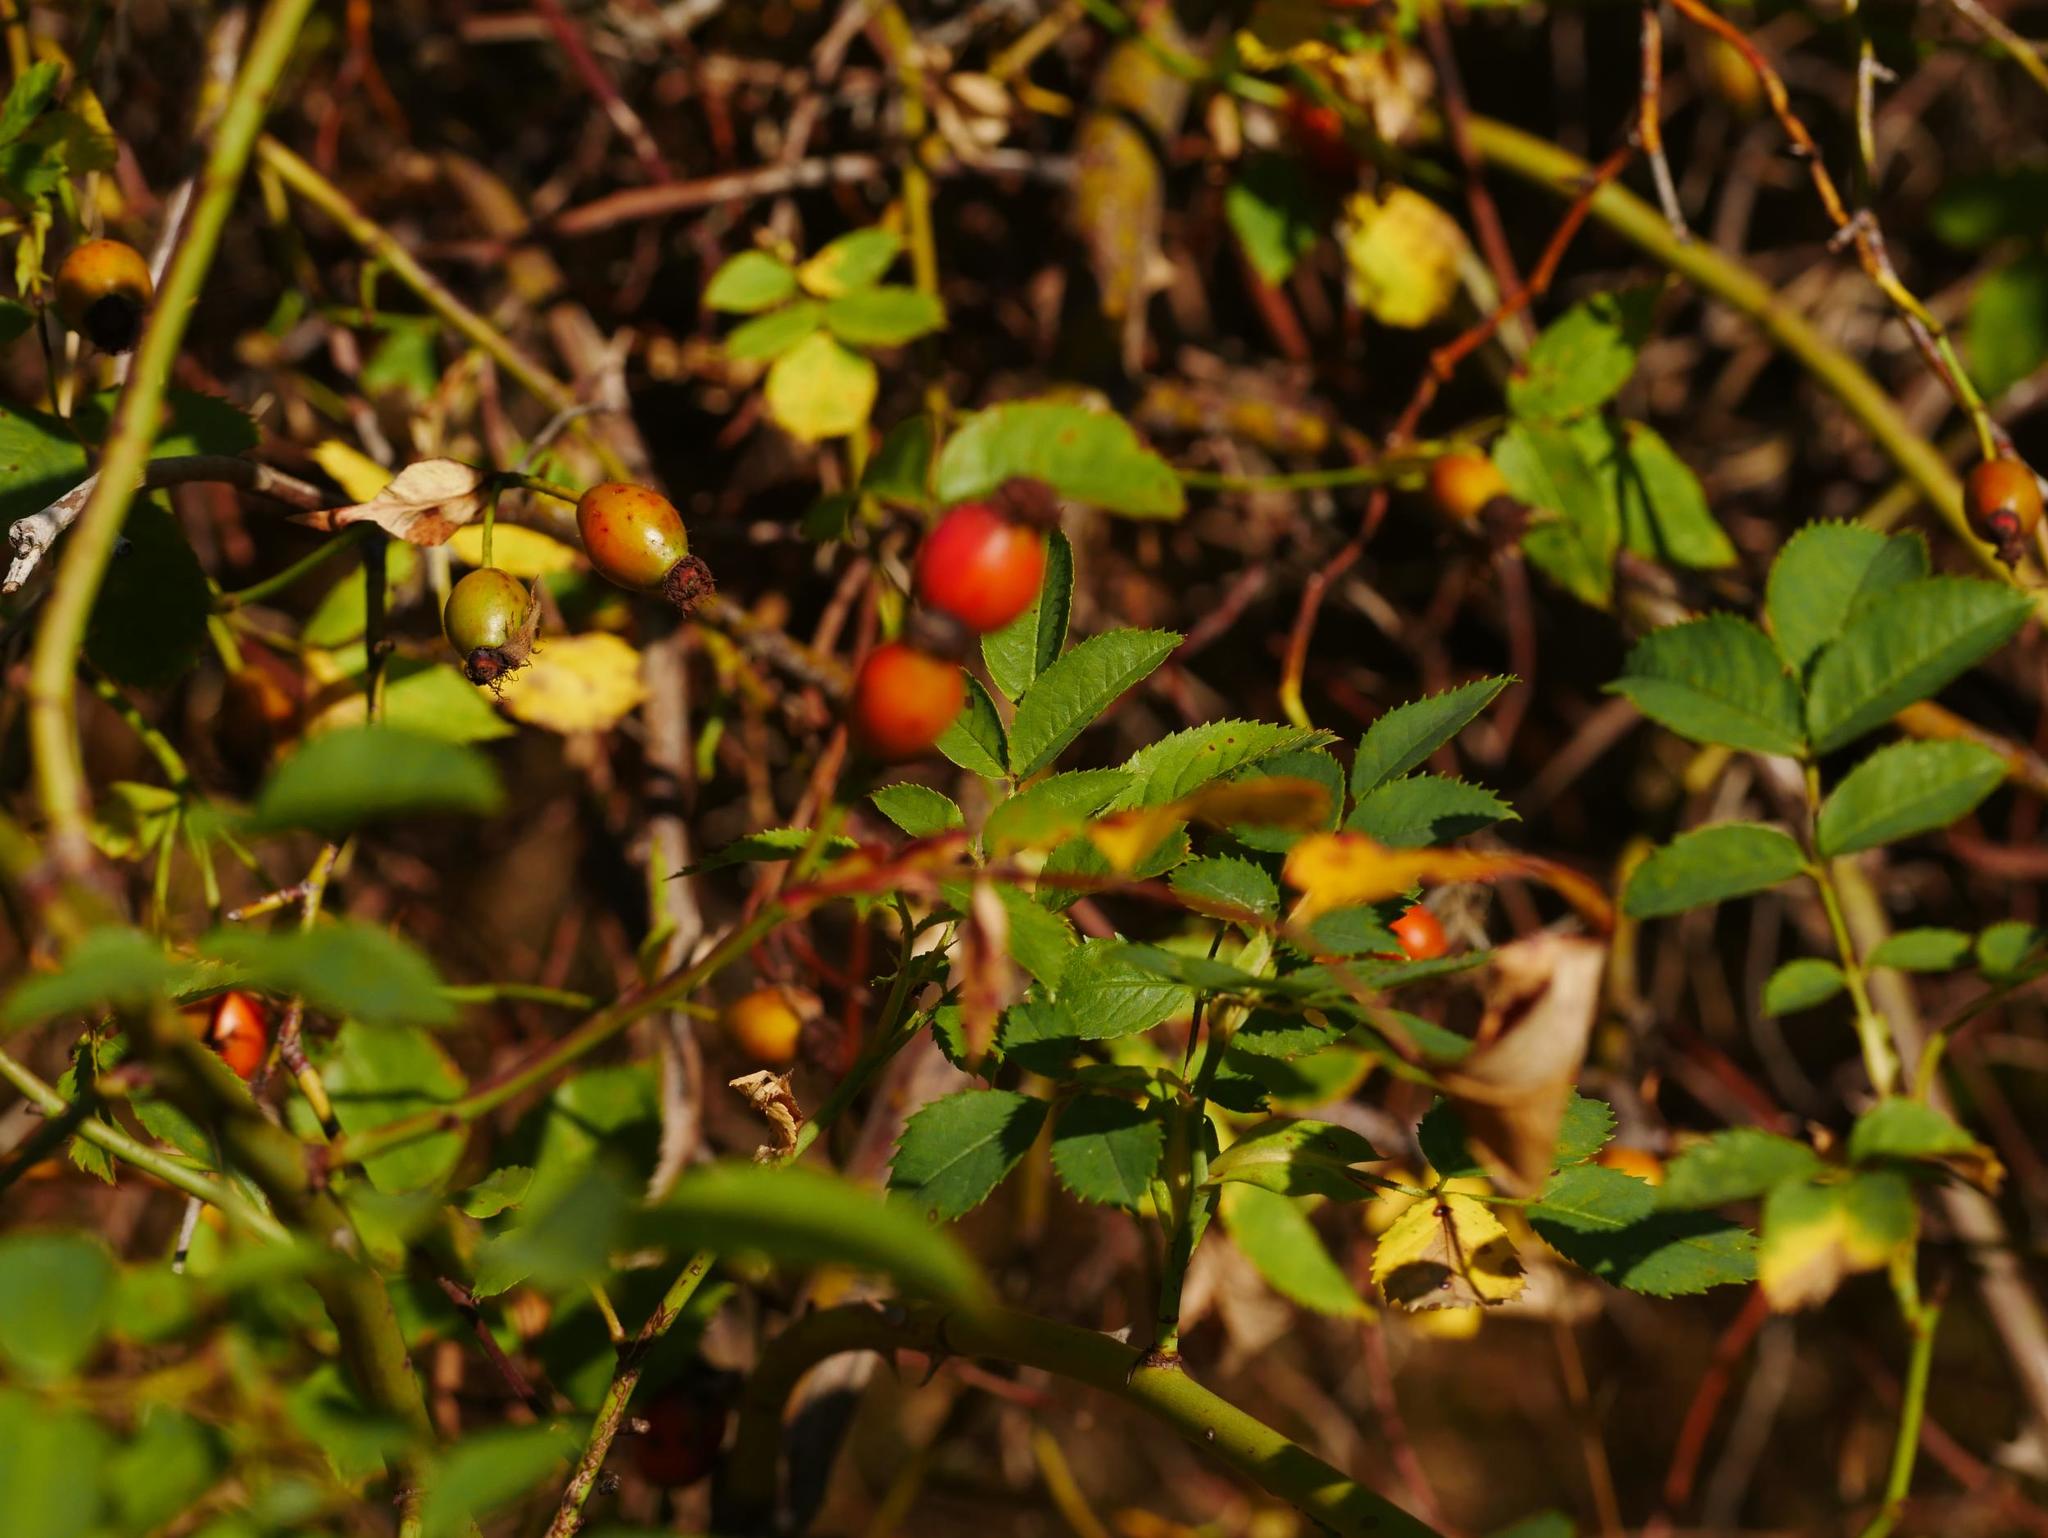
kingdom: Plantae
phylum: Tracheophyta
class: Magnoliopsida
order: Rosales
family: Rosaceae
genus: Rosa
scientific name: Rosa canina
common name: Dog rose
